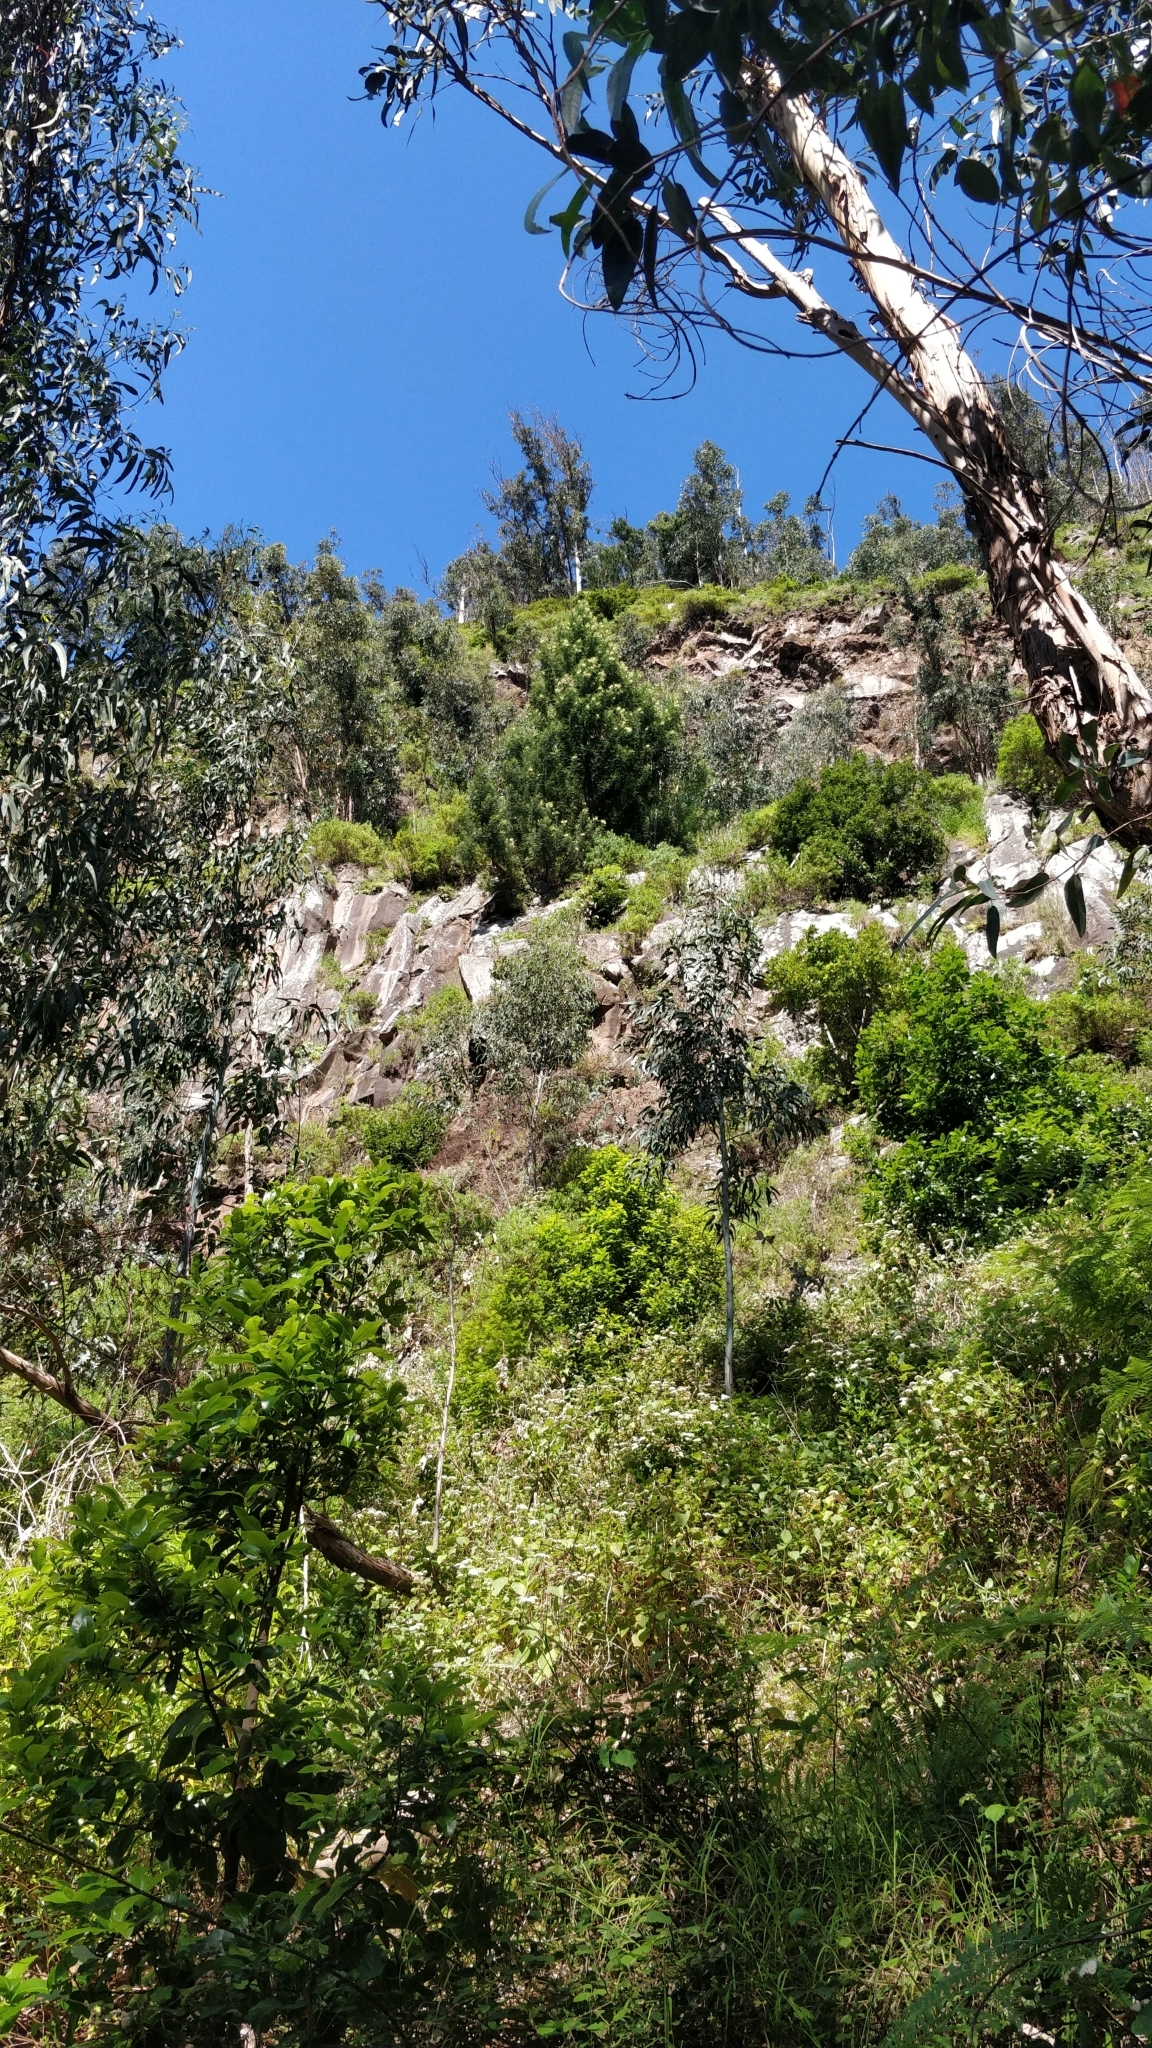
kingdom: Plantae
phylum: Tracheophyta
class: Magnoliopsida
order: Fabales
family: Fabaceae
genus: Acacia
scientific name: Acacia mearnsii
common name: Black wattle
